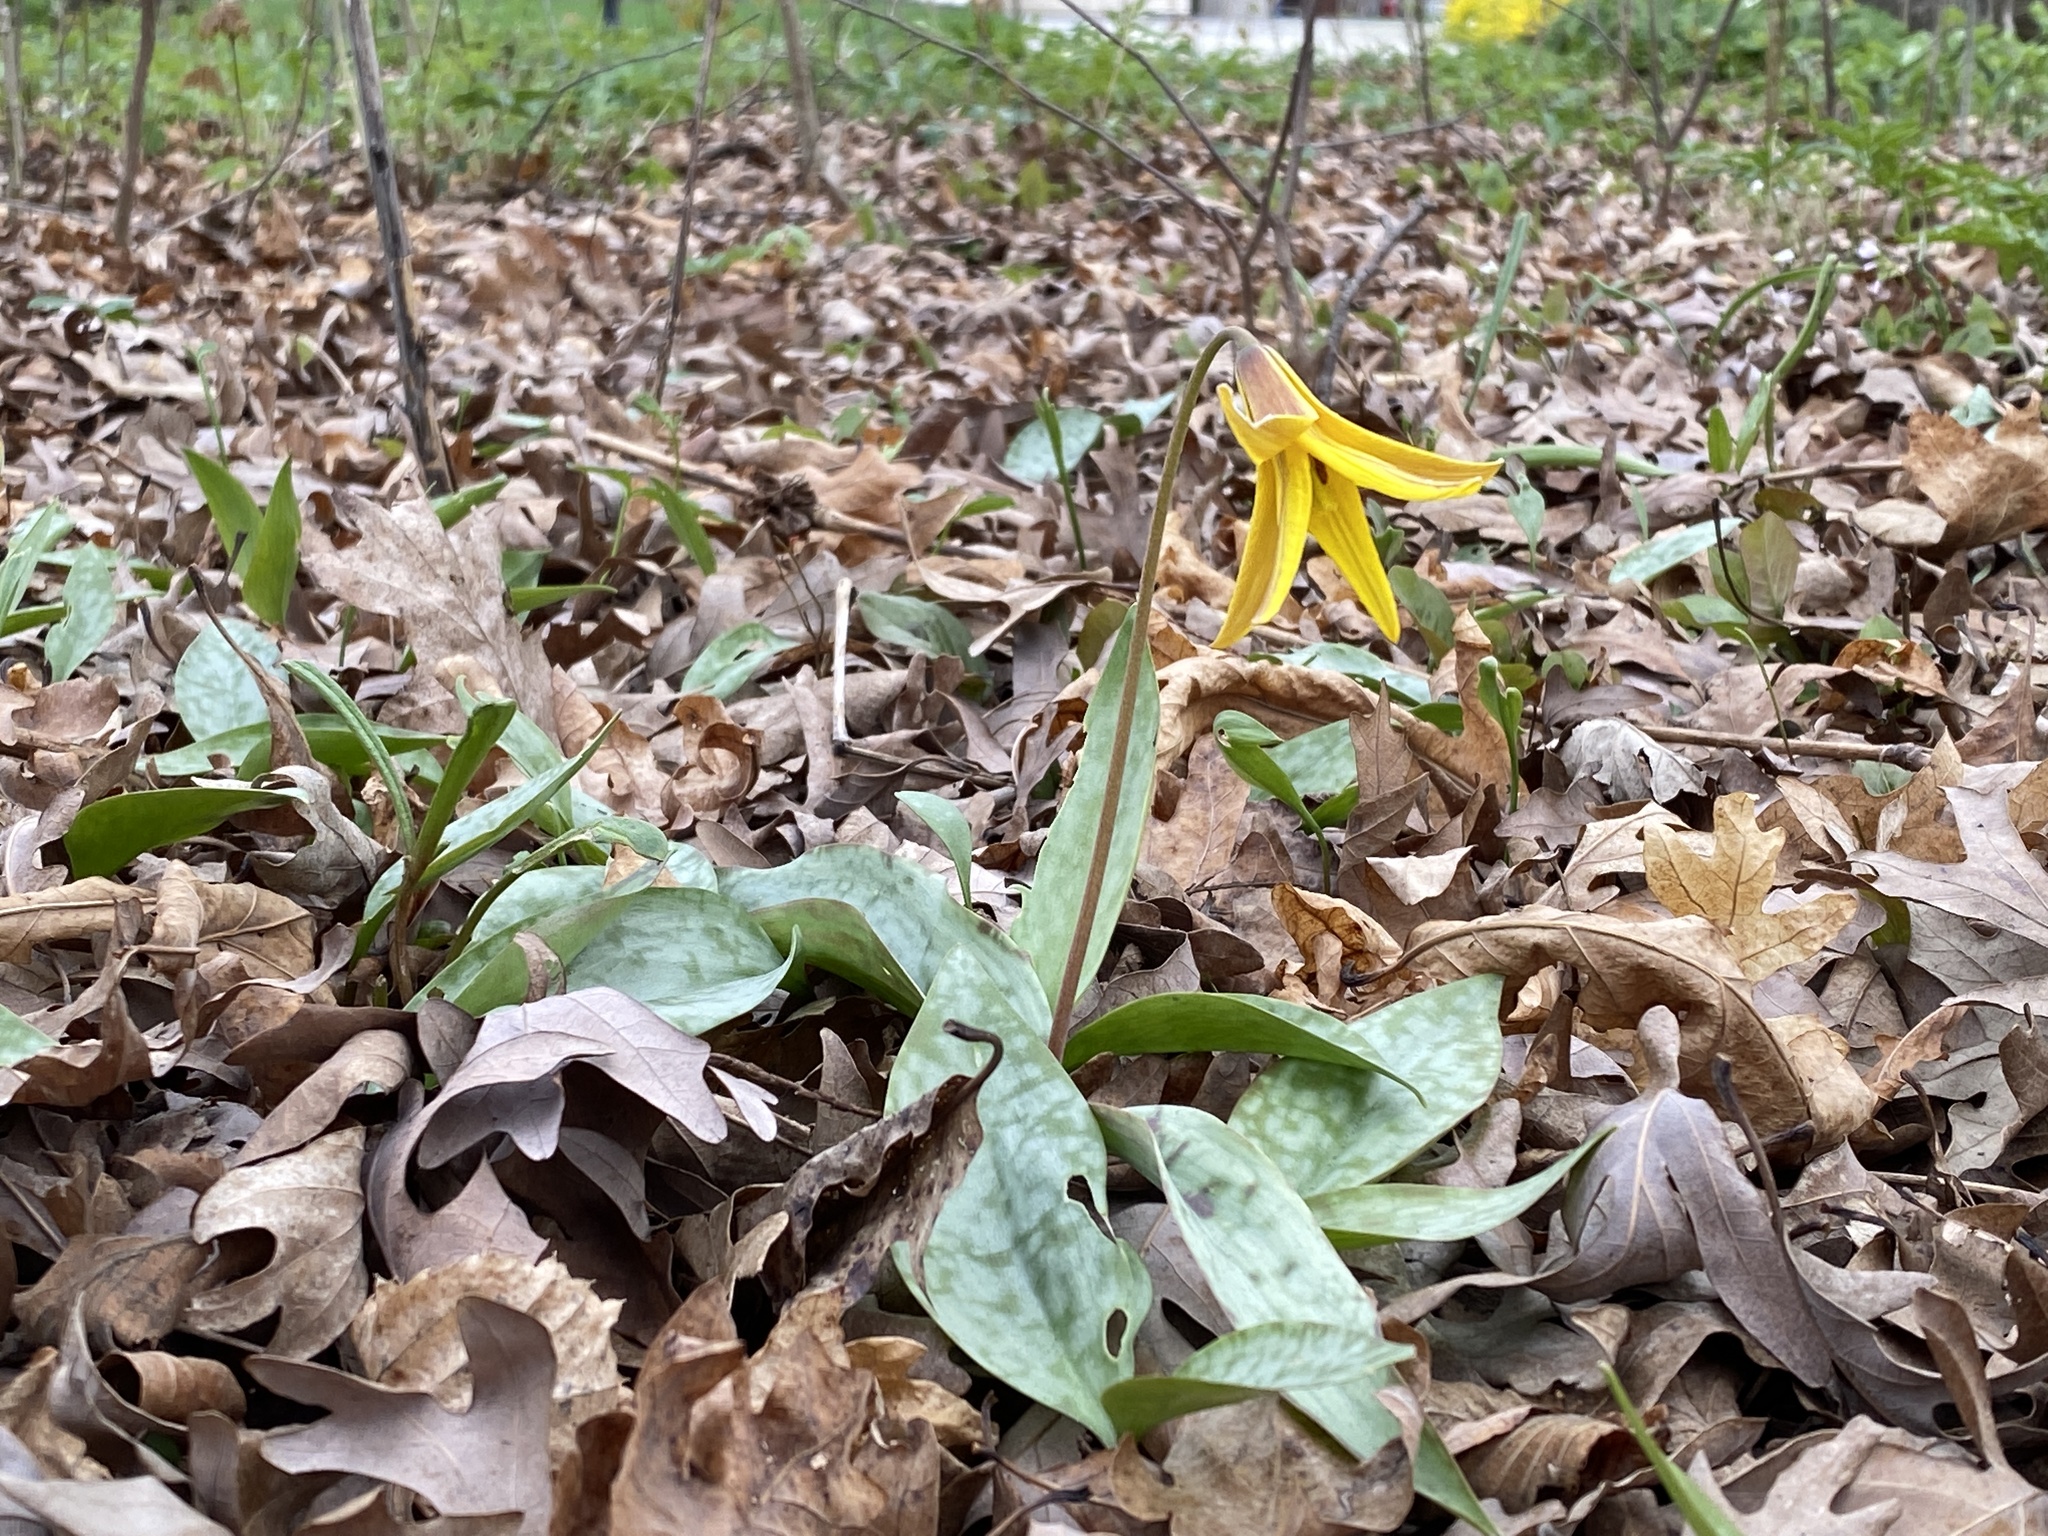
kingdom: Plantae
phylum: Tracheophyta
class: Liliopsida
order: Liliales
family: Liliaceae
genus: Erythronium
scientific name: Erythronium americanum
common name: Yellow adder's-tongue
